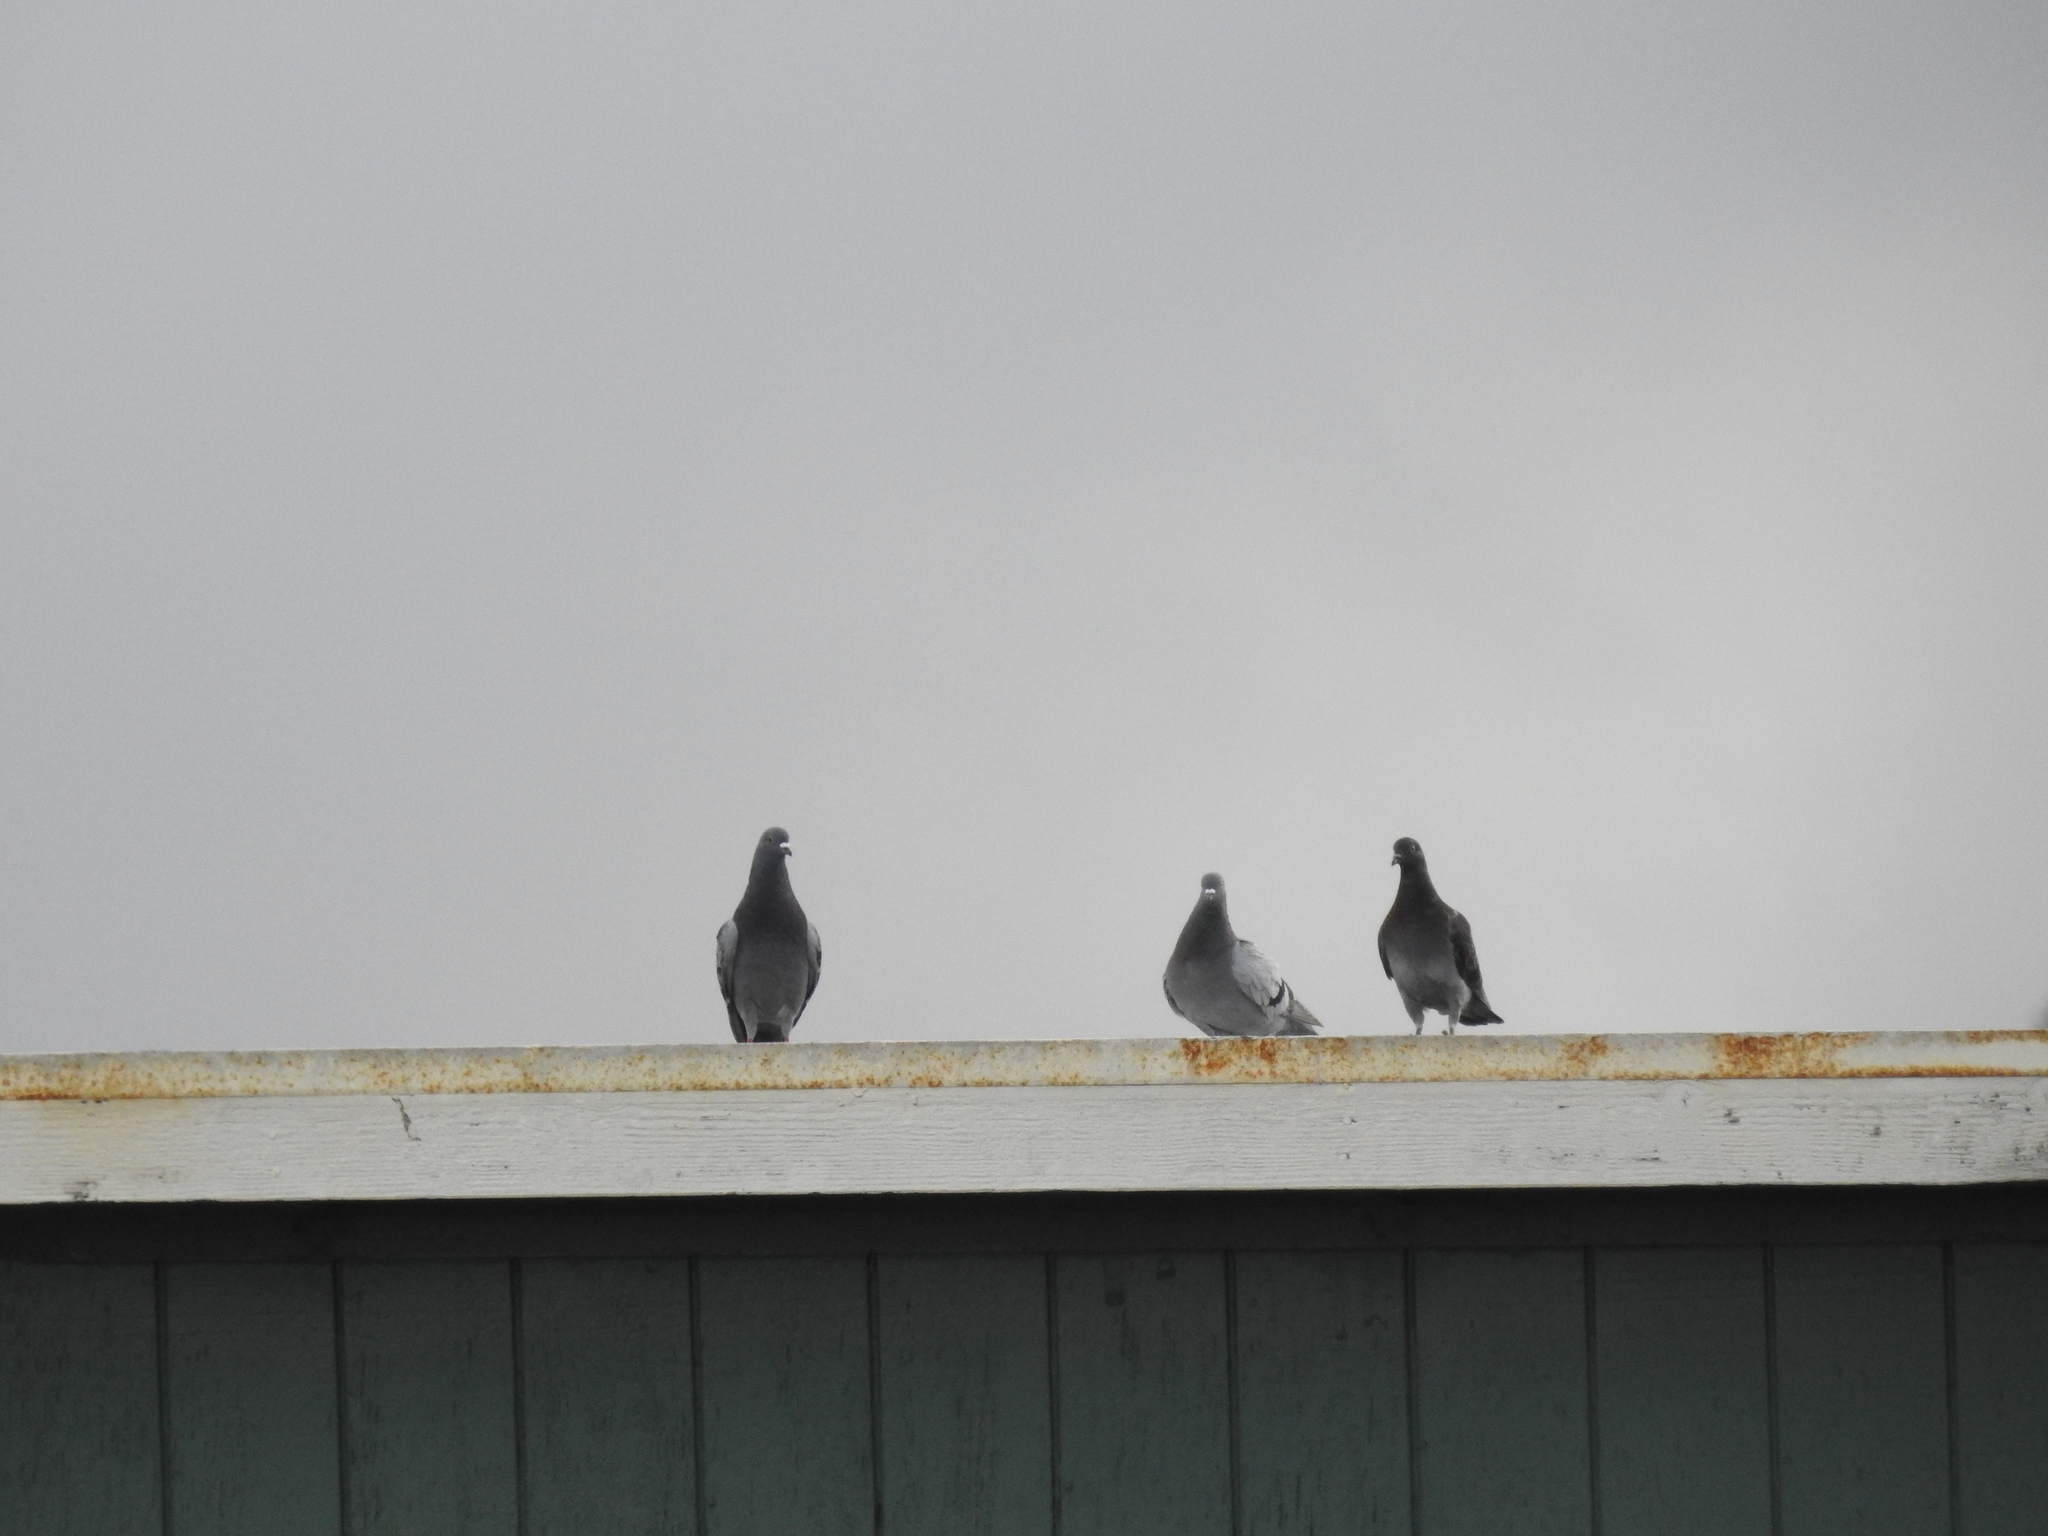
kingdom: Animalia
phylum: Chordata
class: Aves
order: Columbiformes
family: Columbidae
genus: Columba
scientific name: Columba livia
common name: Rock pigeon
